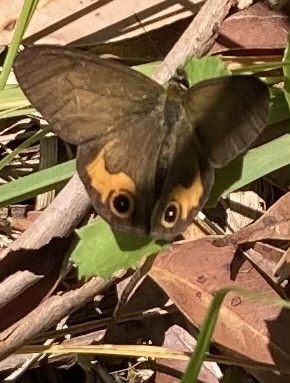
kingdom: Animalia
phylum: Arthropoda
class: Insecta
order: Lepidoptera
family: Nymphalidae
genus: Hypocysta
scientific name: Hypocysta metirius
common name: Brown ringlet
